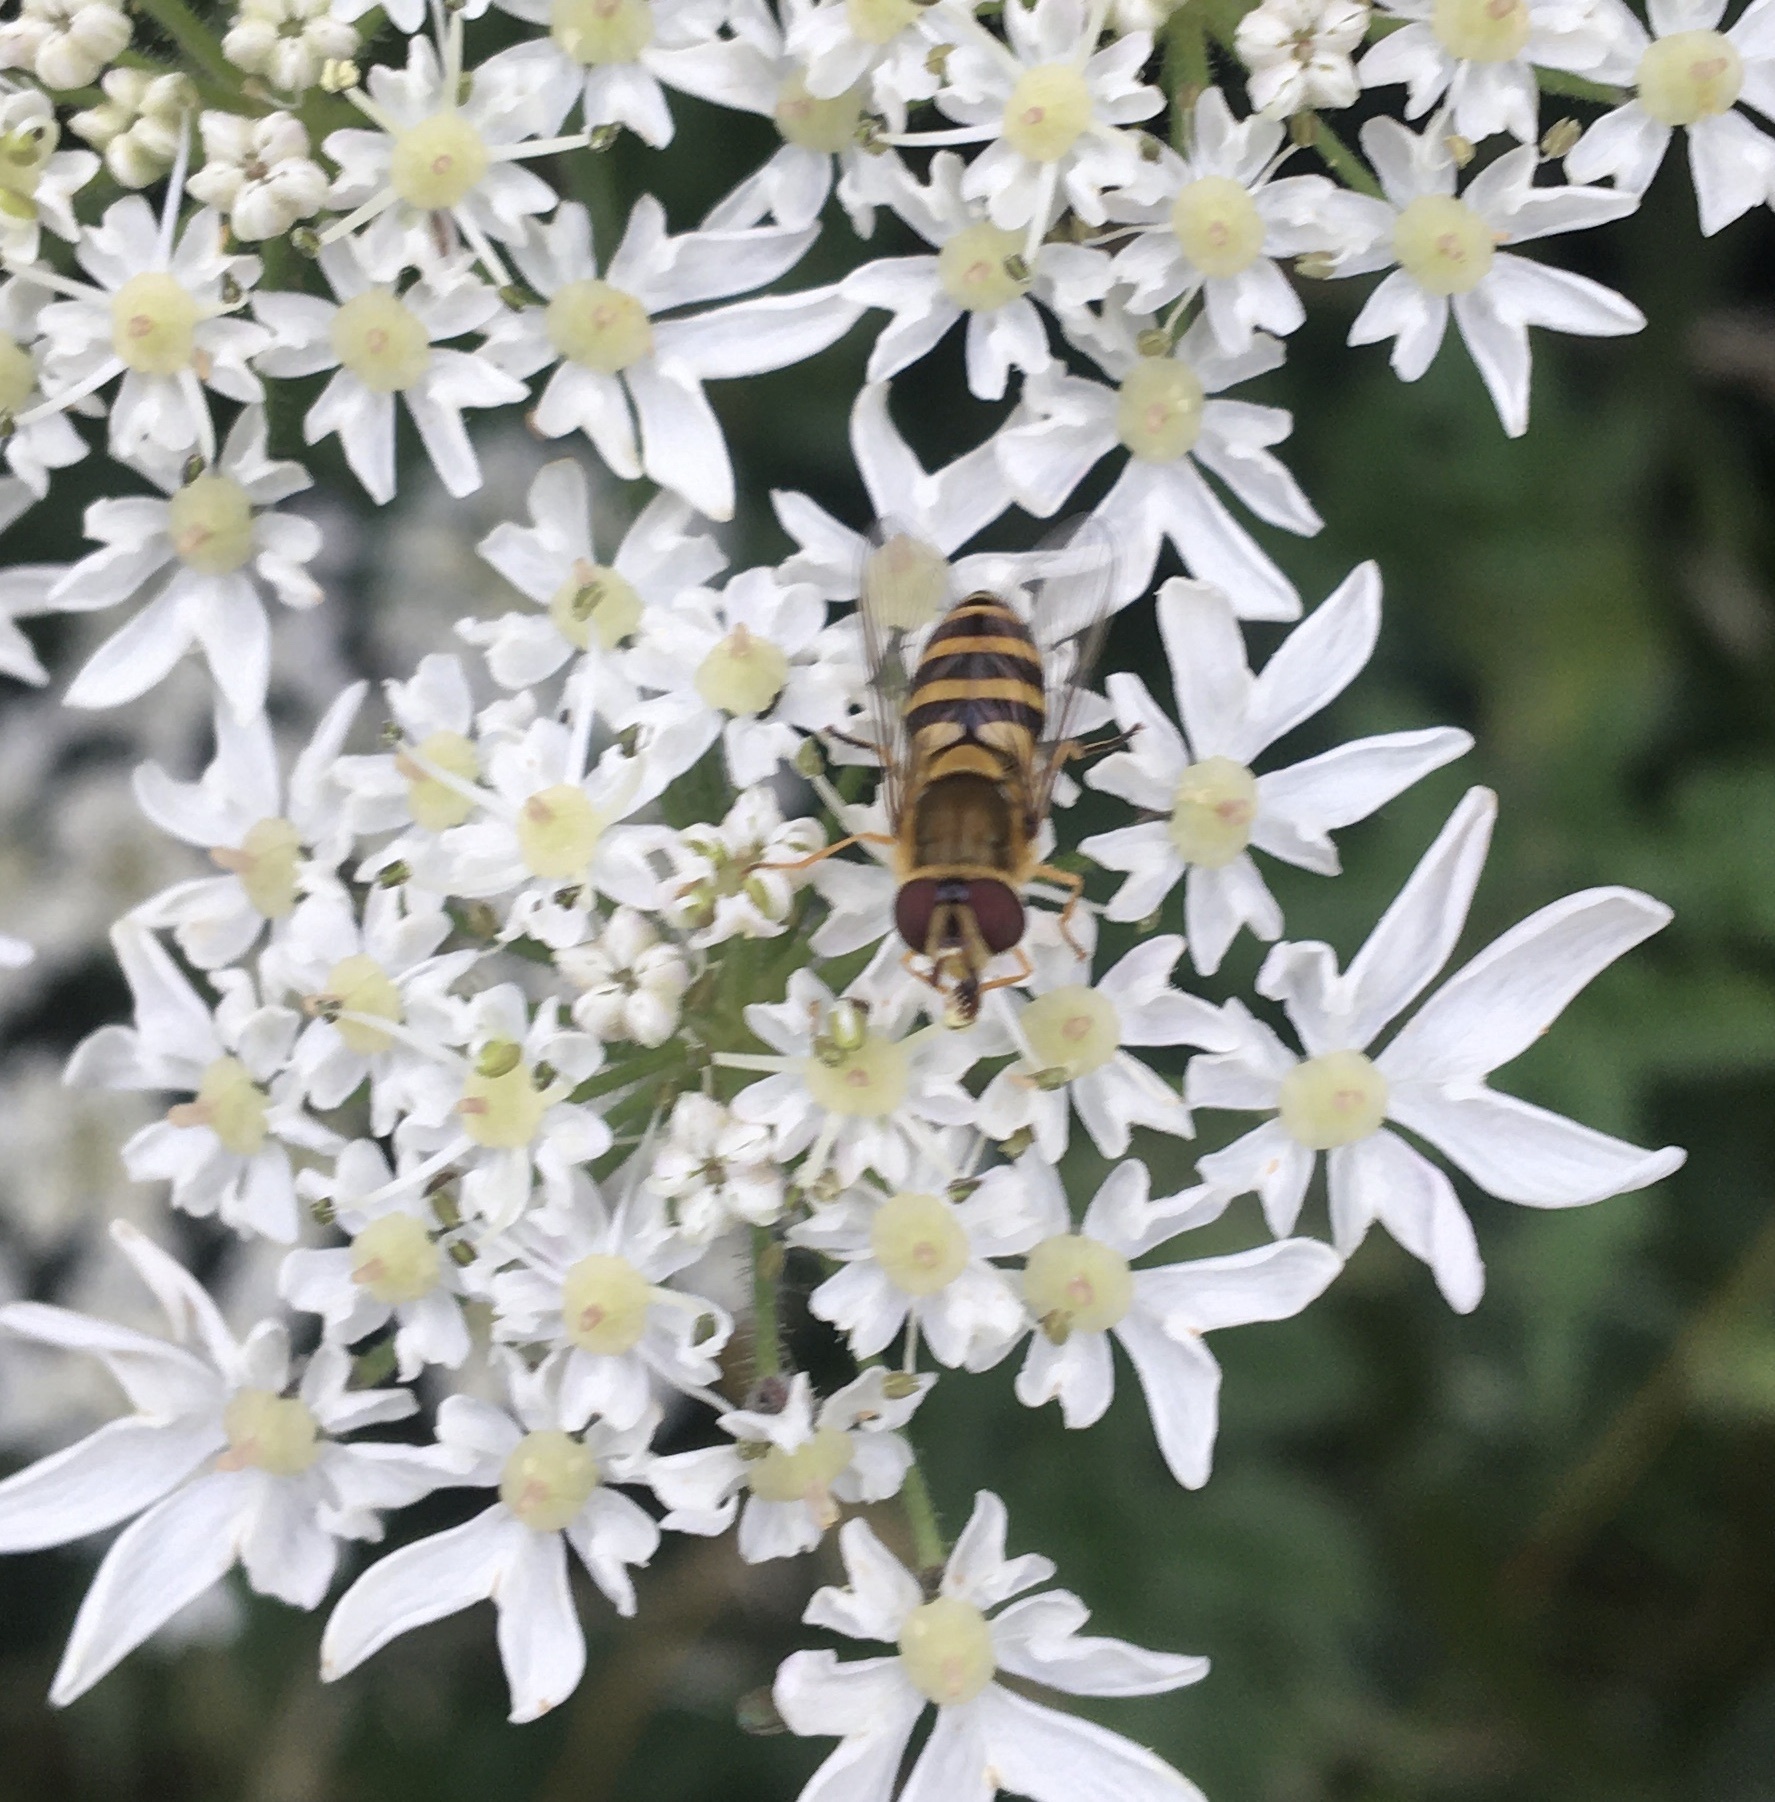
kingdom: Animalia
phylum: Arthropoda
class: Insecta
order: Diptera
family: Syrphidae
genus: Syrphus
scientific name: Syrphus
